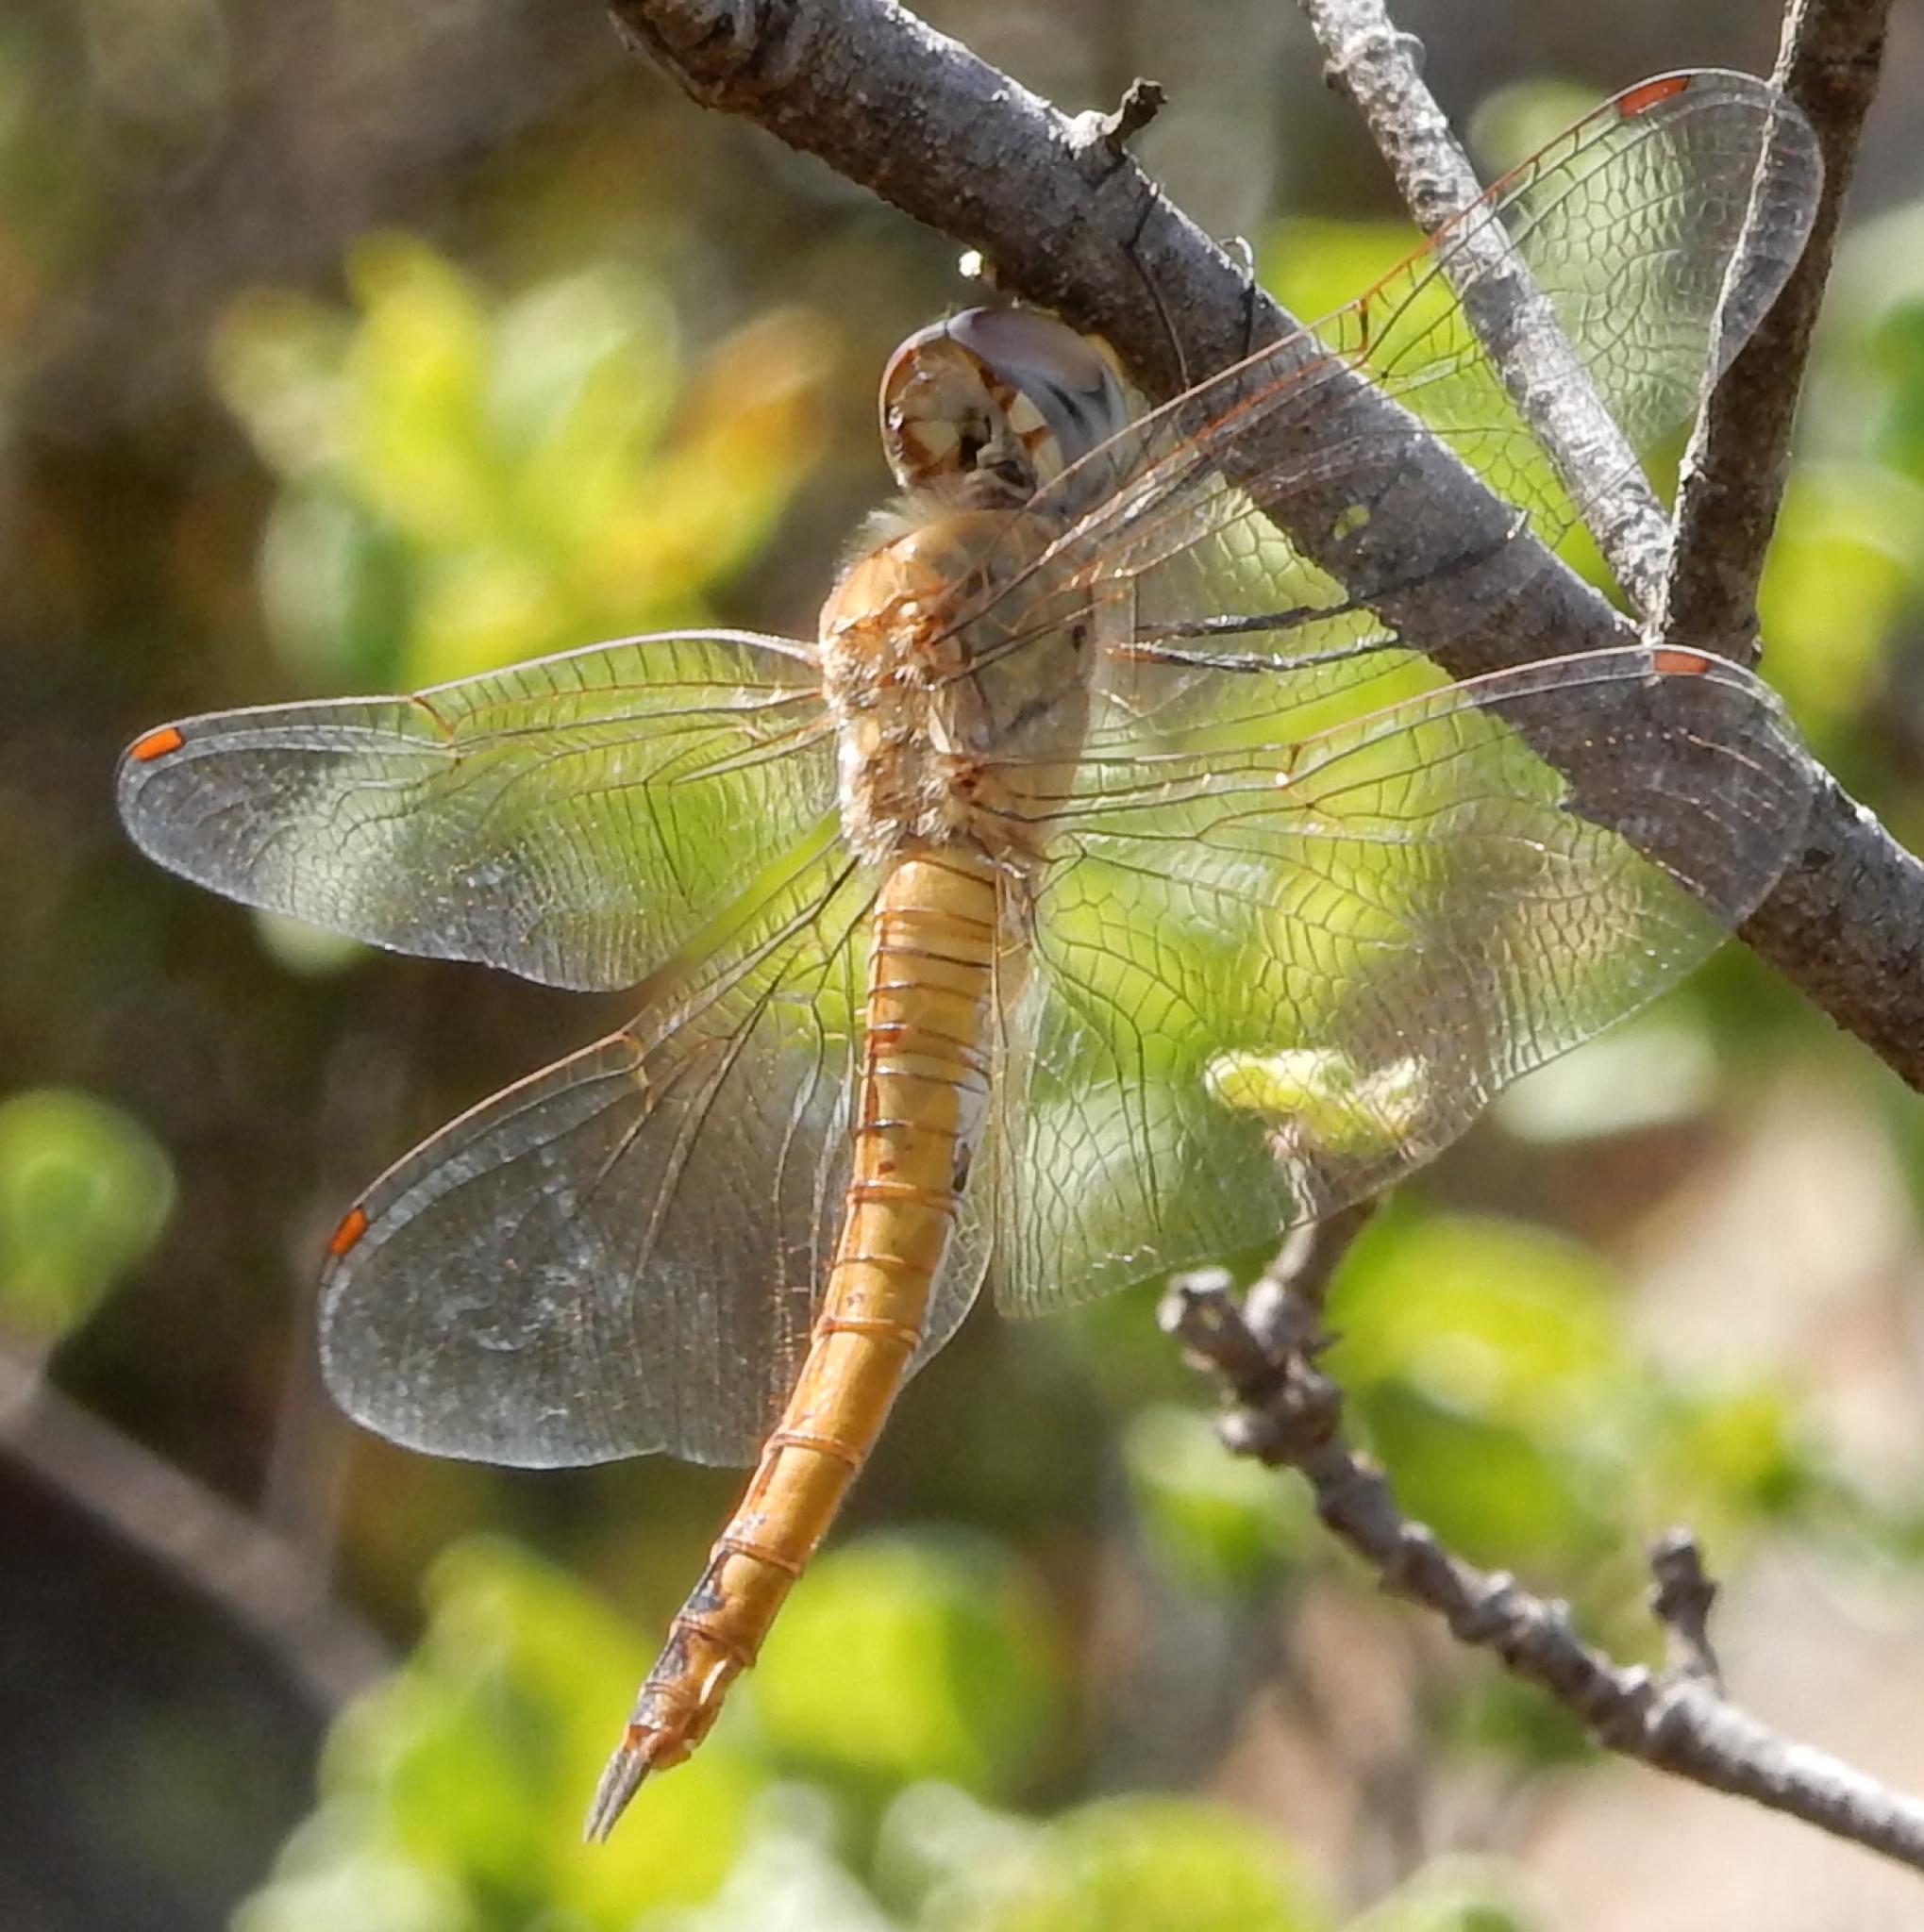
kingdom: Animalia
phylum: Arthropoda
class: Insecta
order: Odonata
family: Libellulidae
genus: Pantala
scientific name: Pantala flavescens
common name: Wandering glider
